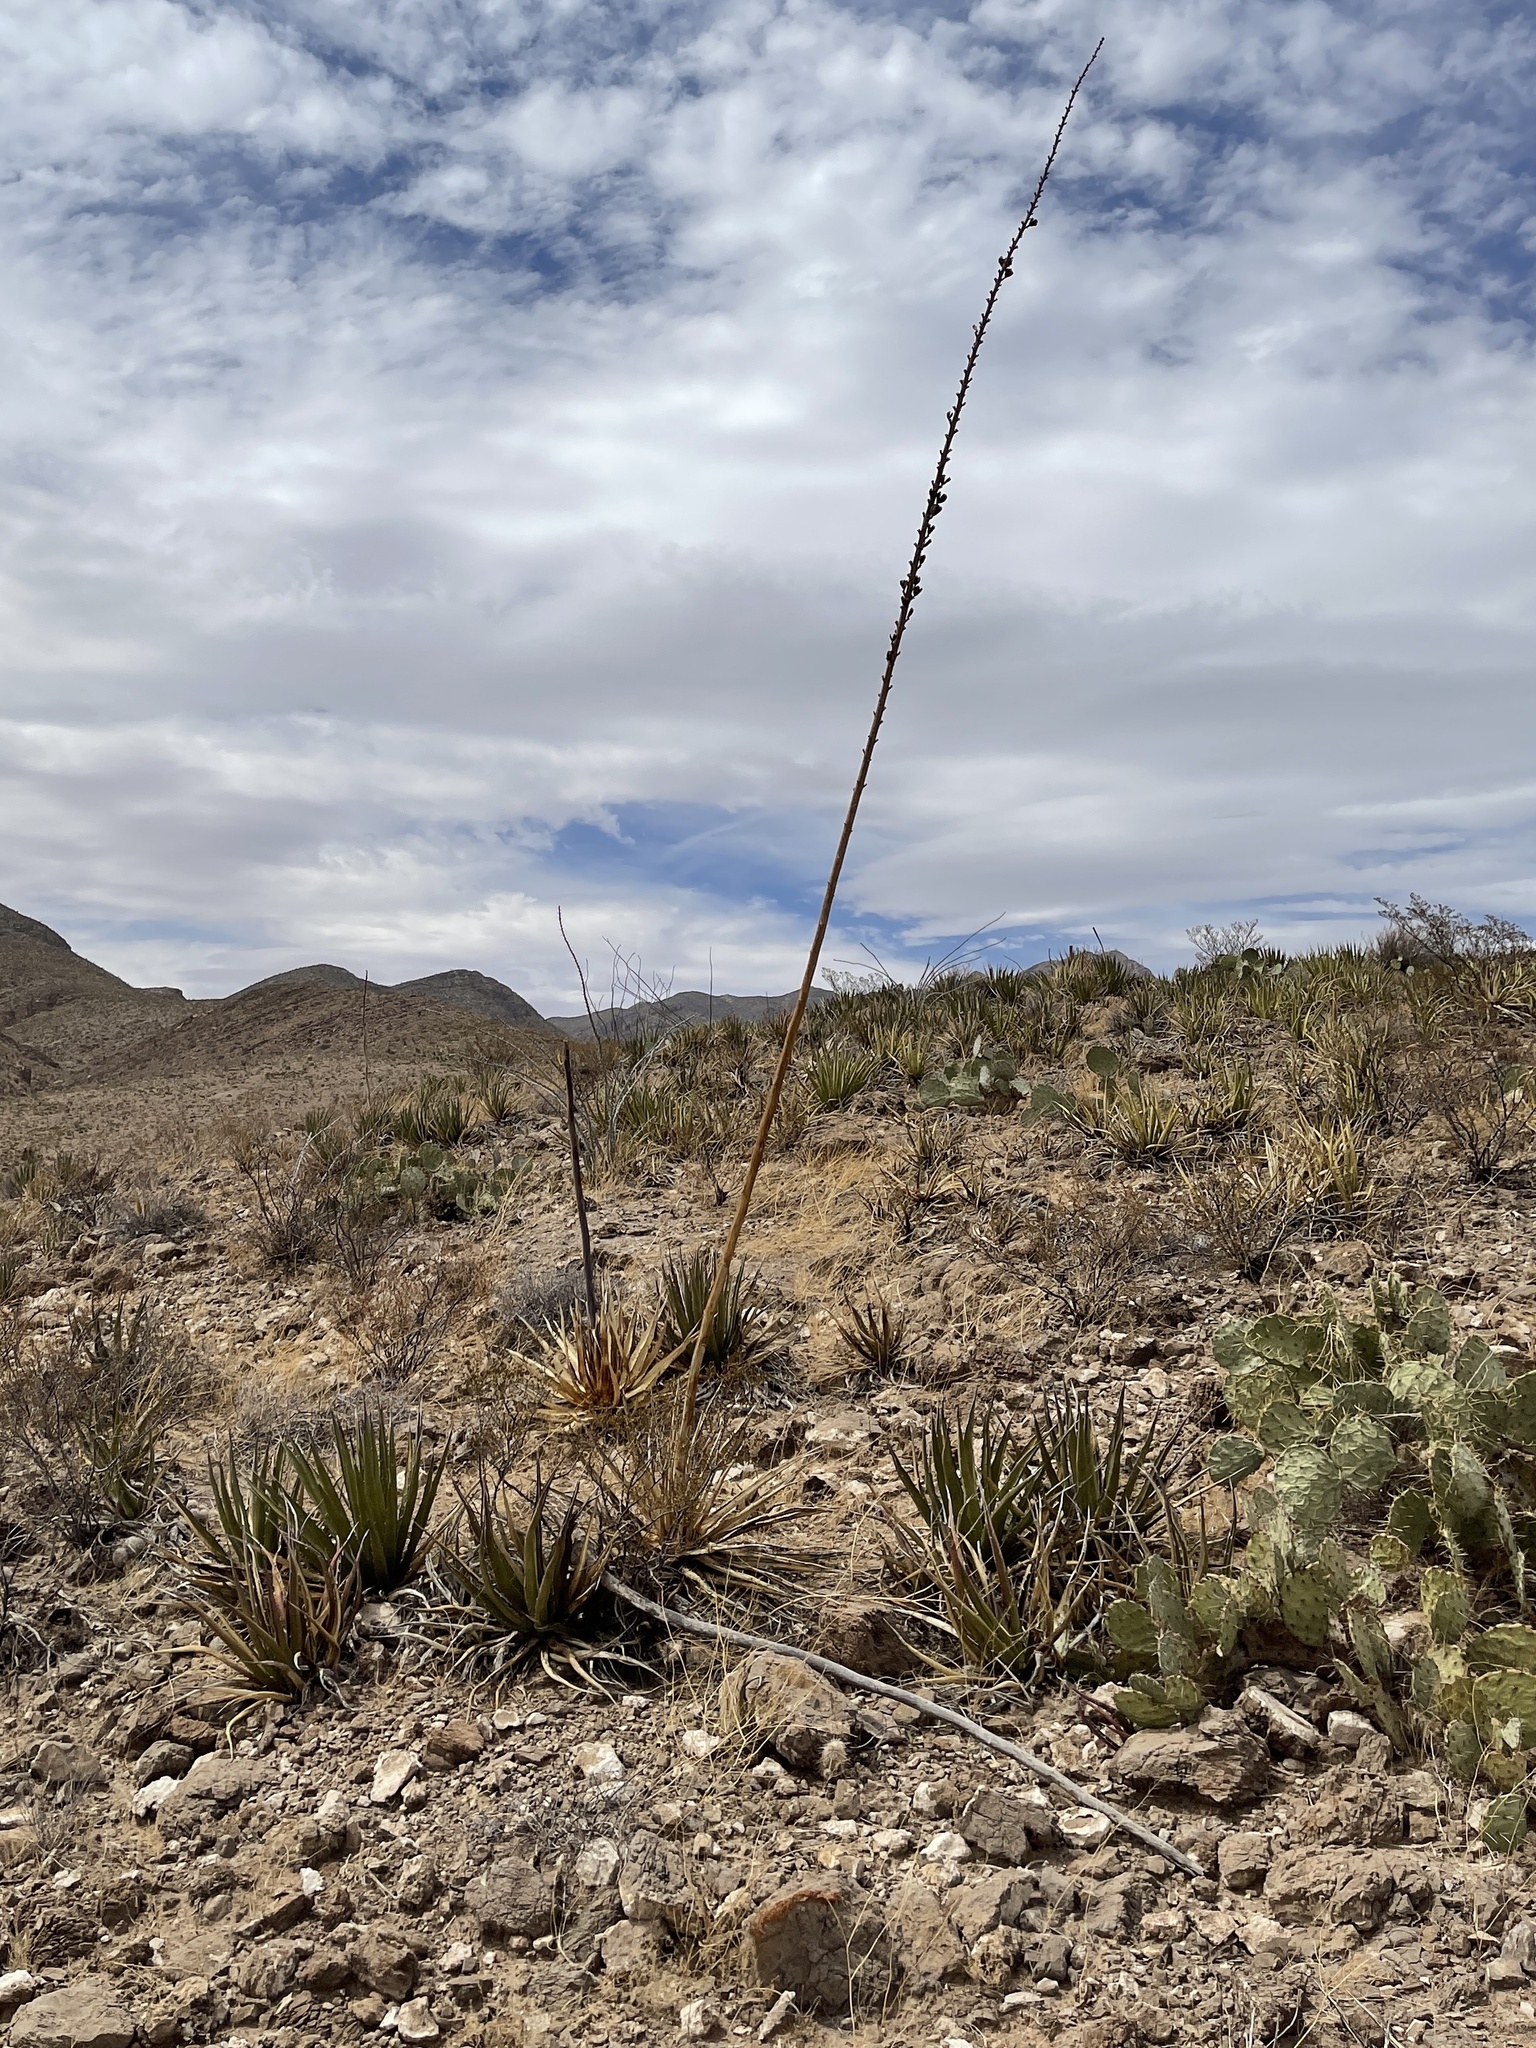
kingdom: Plantae
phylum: Tracheophyta
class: Liliopsida
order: Asparagales
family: Asparagaceae
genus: Agave
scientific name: Agave lechuguilla
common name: Lecheguilla agave
